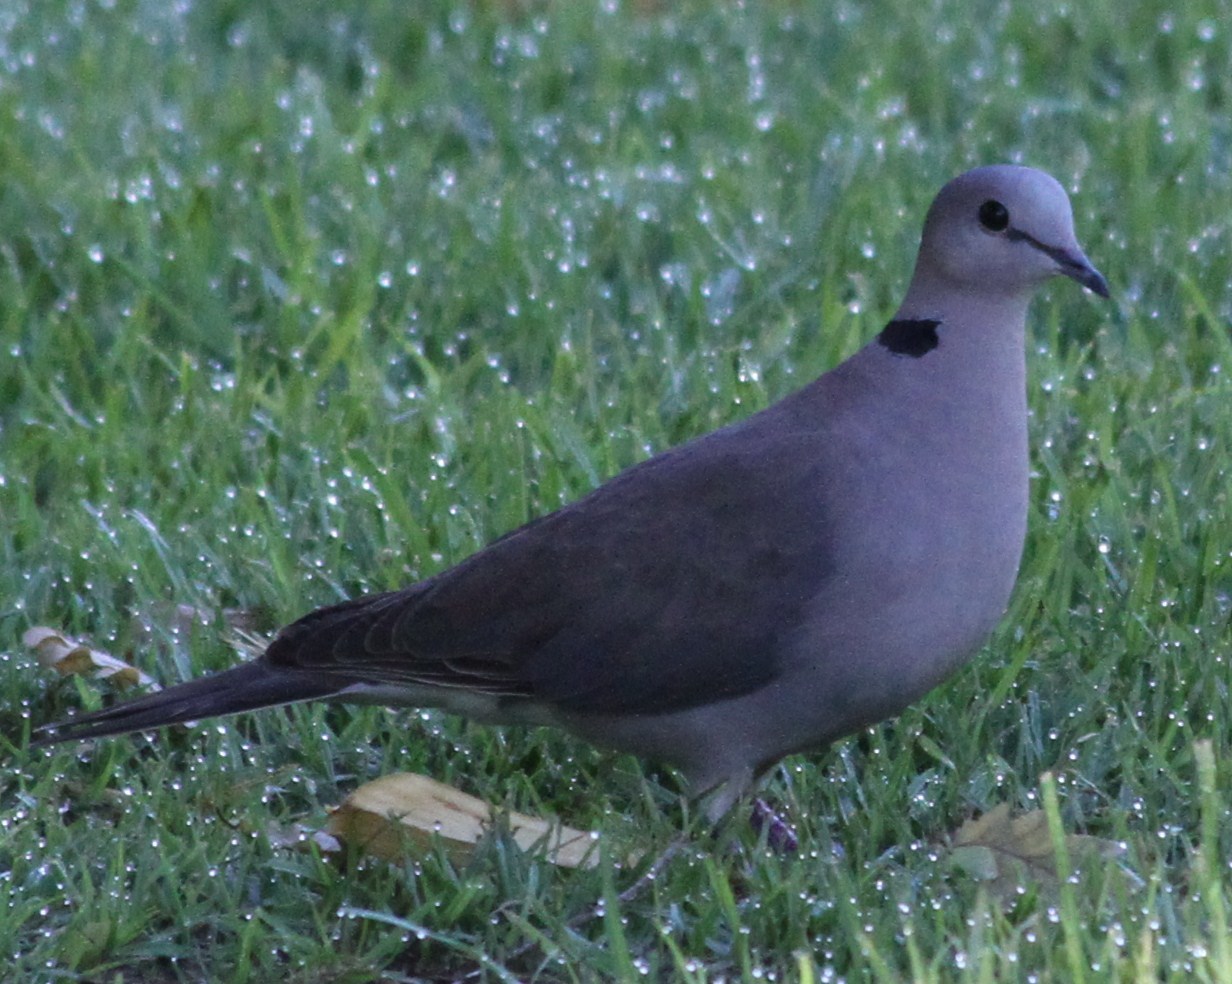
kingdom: Animalia
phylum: Chordata
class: Aves
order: Columbiformes
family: Columbidae
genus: Streptopelia
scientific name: Streptopelia capicola
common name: Ring-necked dove
